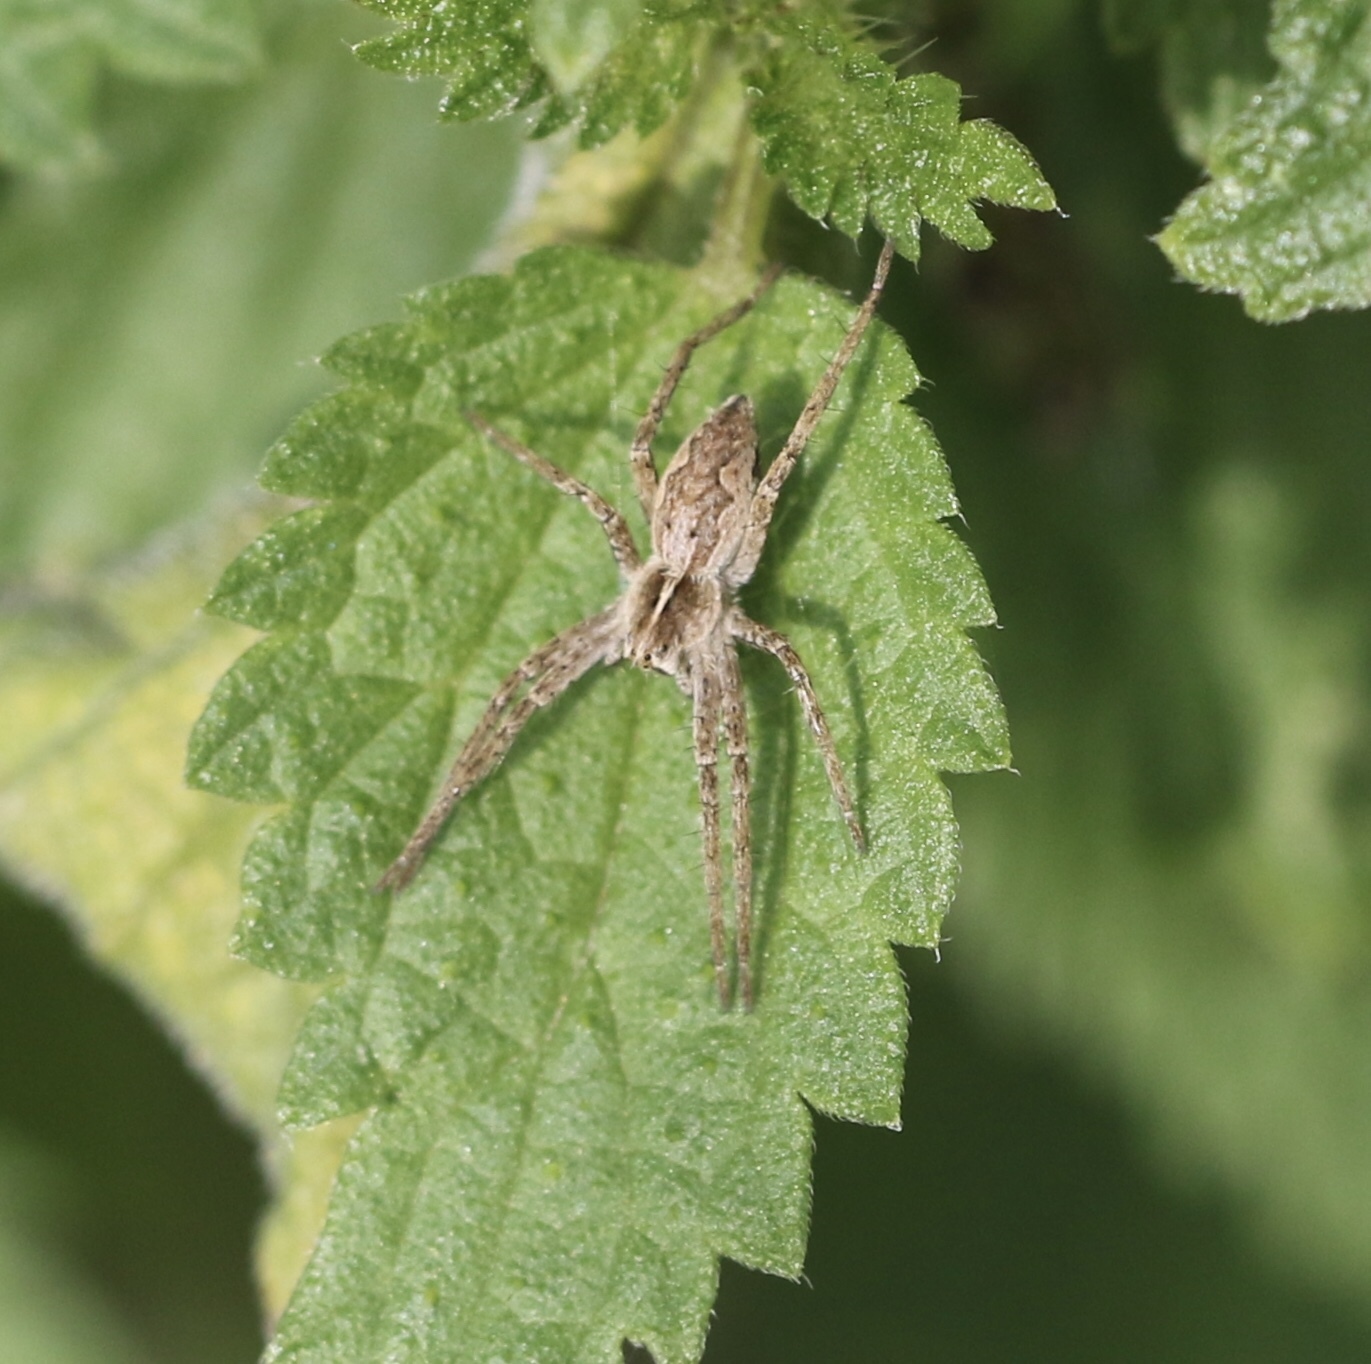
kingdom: Animalia
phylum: Arthropoda
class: Arachnida
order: Araneae
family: Pisauridae
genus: Pisaura
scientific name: Pisaura mirabilis
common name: Tent spider
